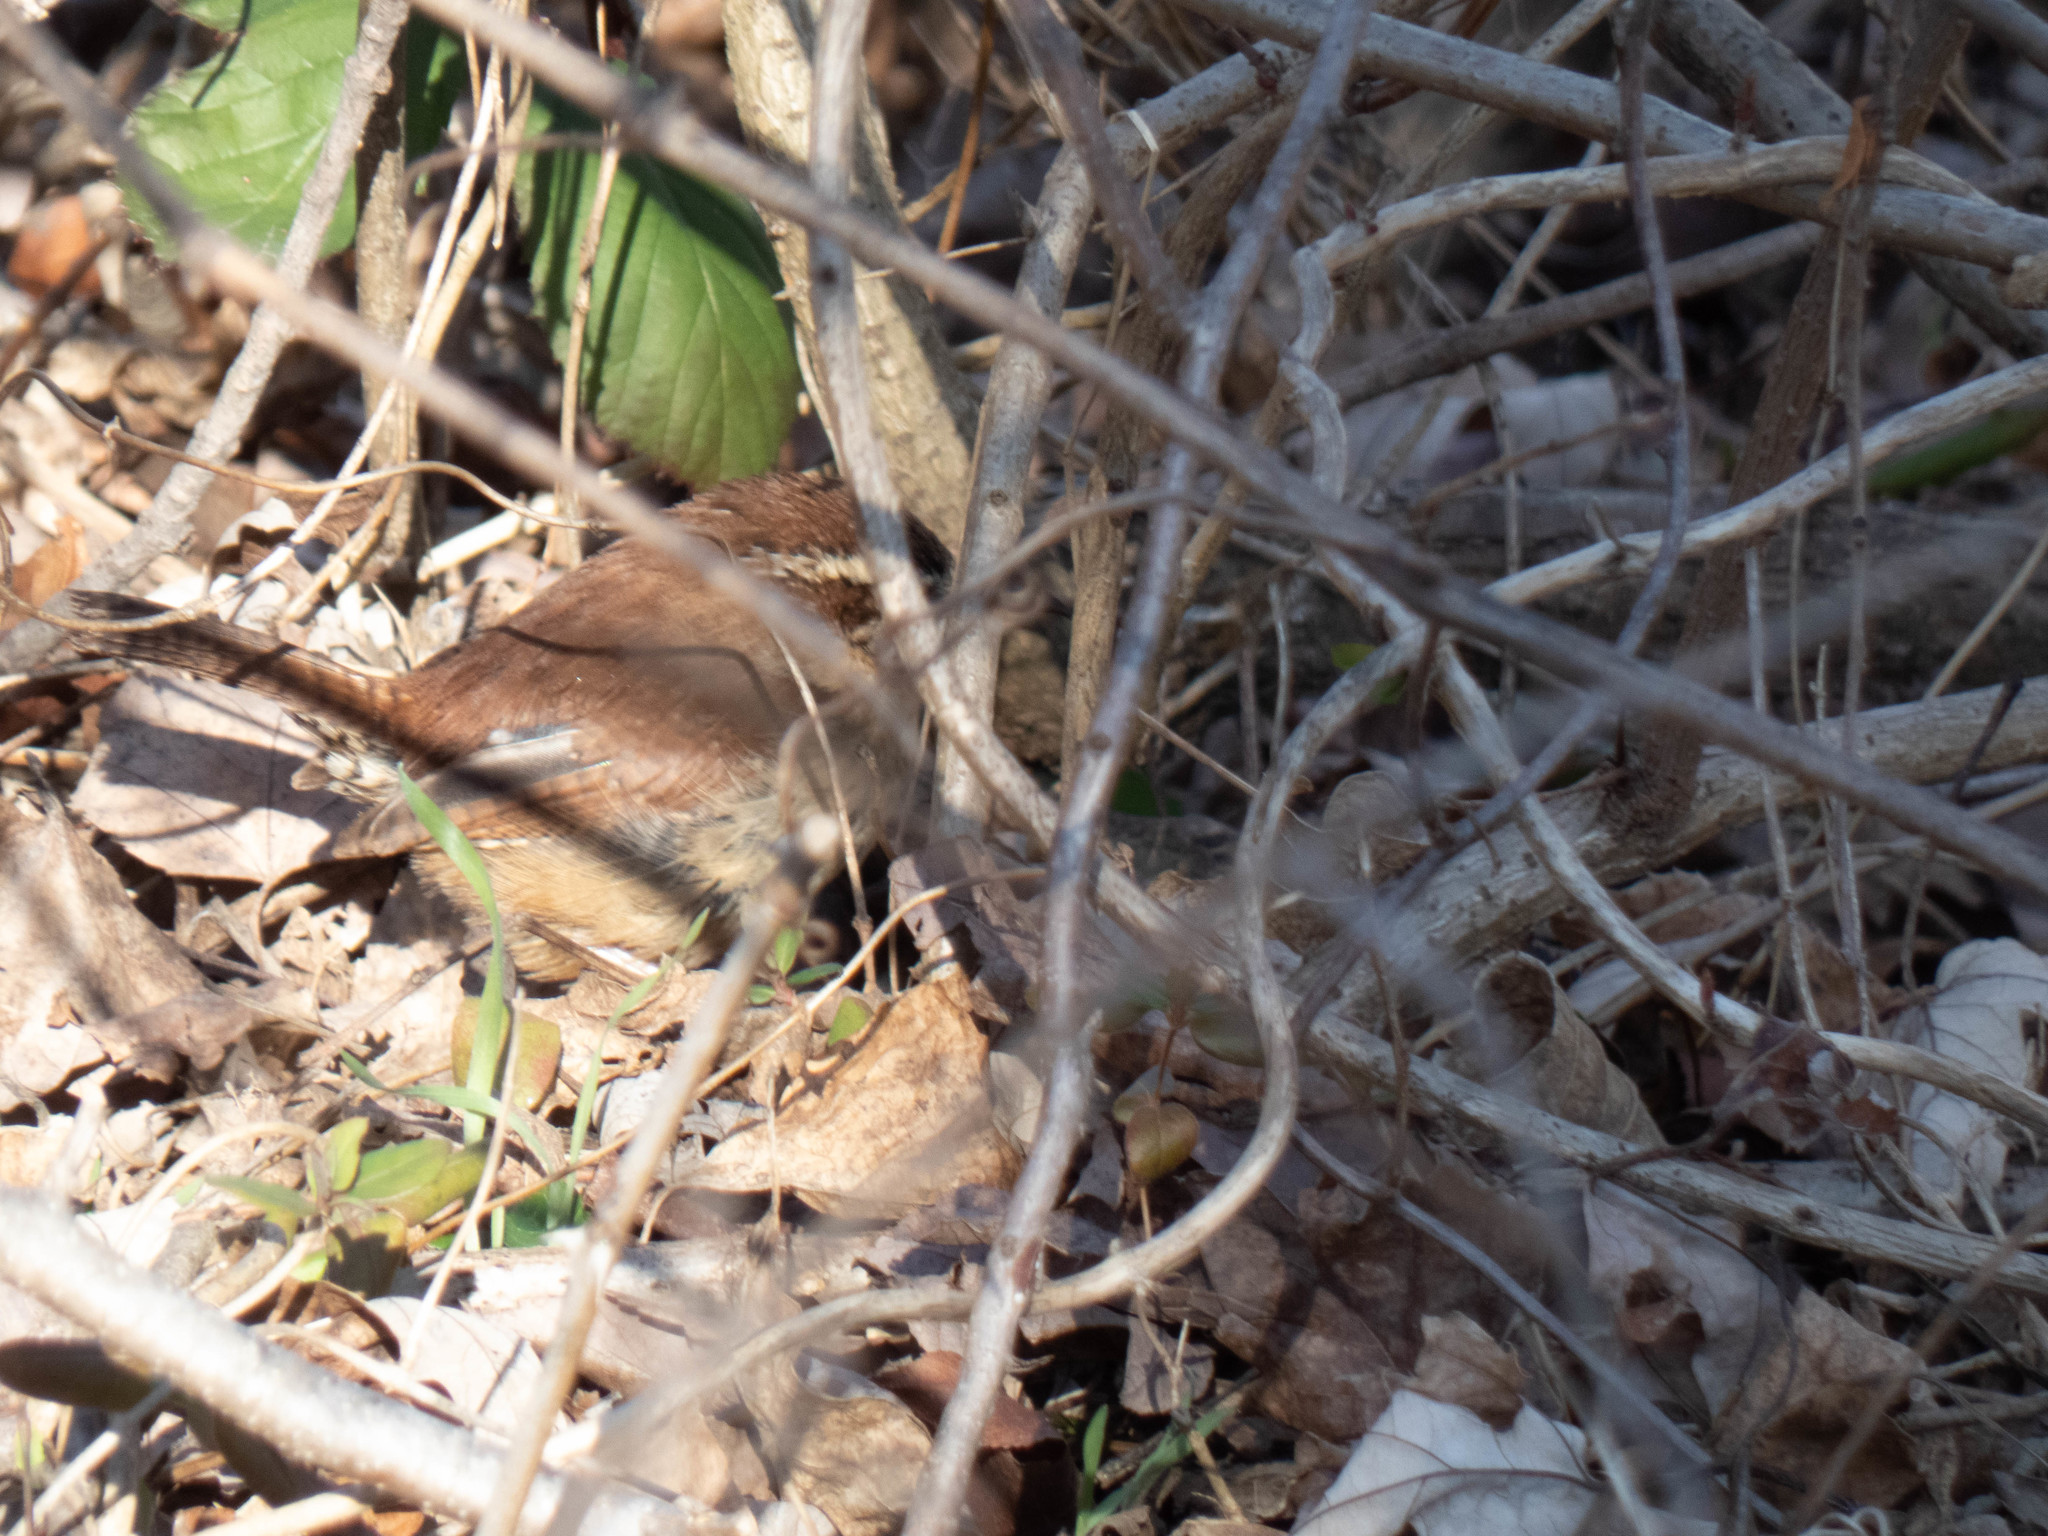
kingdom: Animalia
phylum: Chordata
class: Aves
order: Passeriformes
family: Troglodytidae
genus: Thryothorus
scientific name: Thryothorus ludovicianus
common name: Carolina wren
